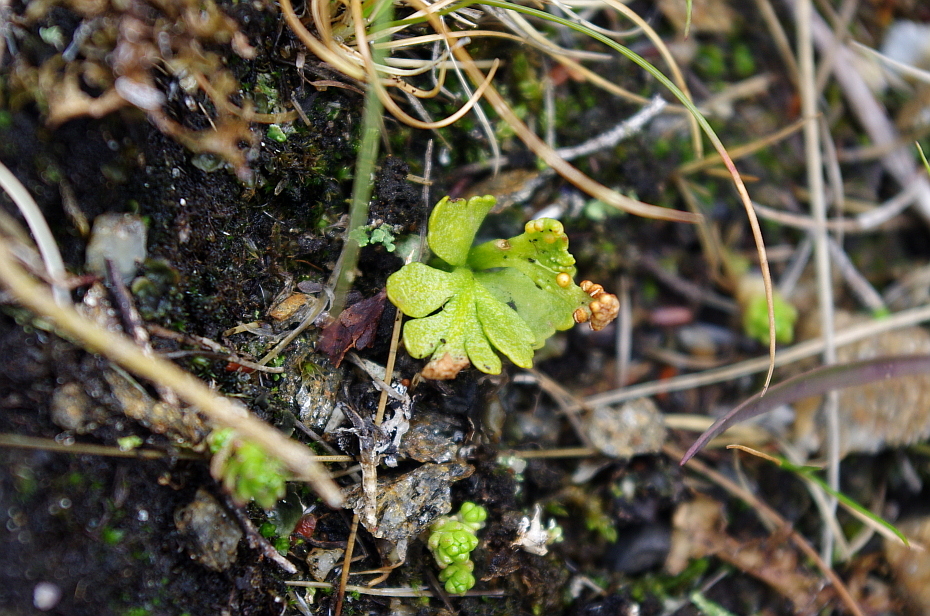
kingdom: Plantae
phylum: Tracheophyta
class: Polypodiopsida
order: Ophioglossales
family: Ophioglossaceae
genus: Botrychium
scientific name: Botrychium boreale
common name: Boreal moonwort
